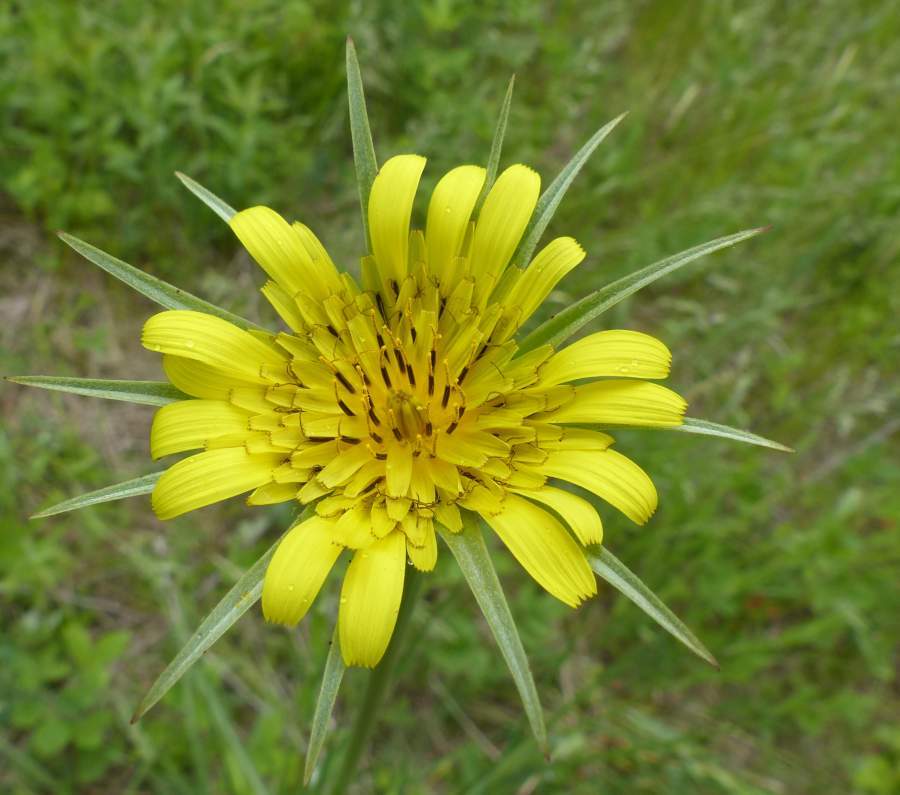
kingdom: Plantae
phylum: Tracheophyta
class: Magnoliopsida
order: Asterales
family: Asteraceae
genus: Tragopogon
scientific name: Tragopogon dubius
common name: Yellow salsify
